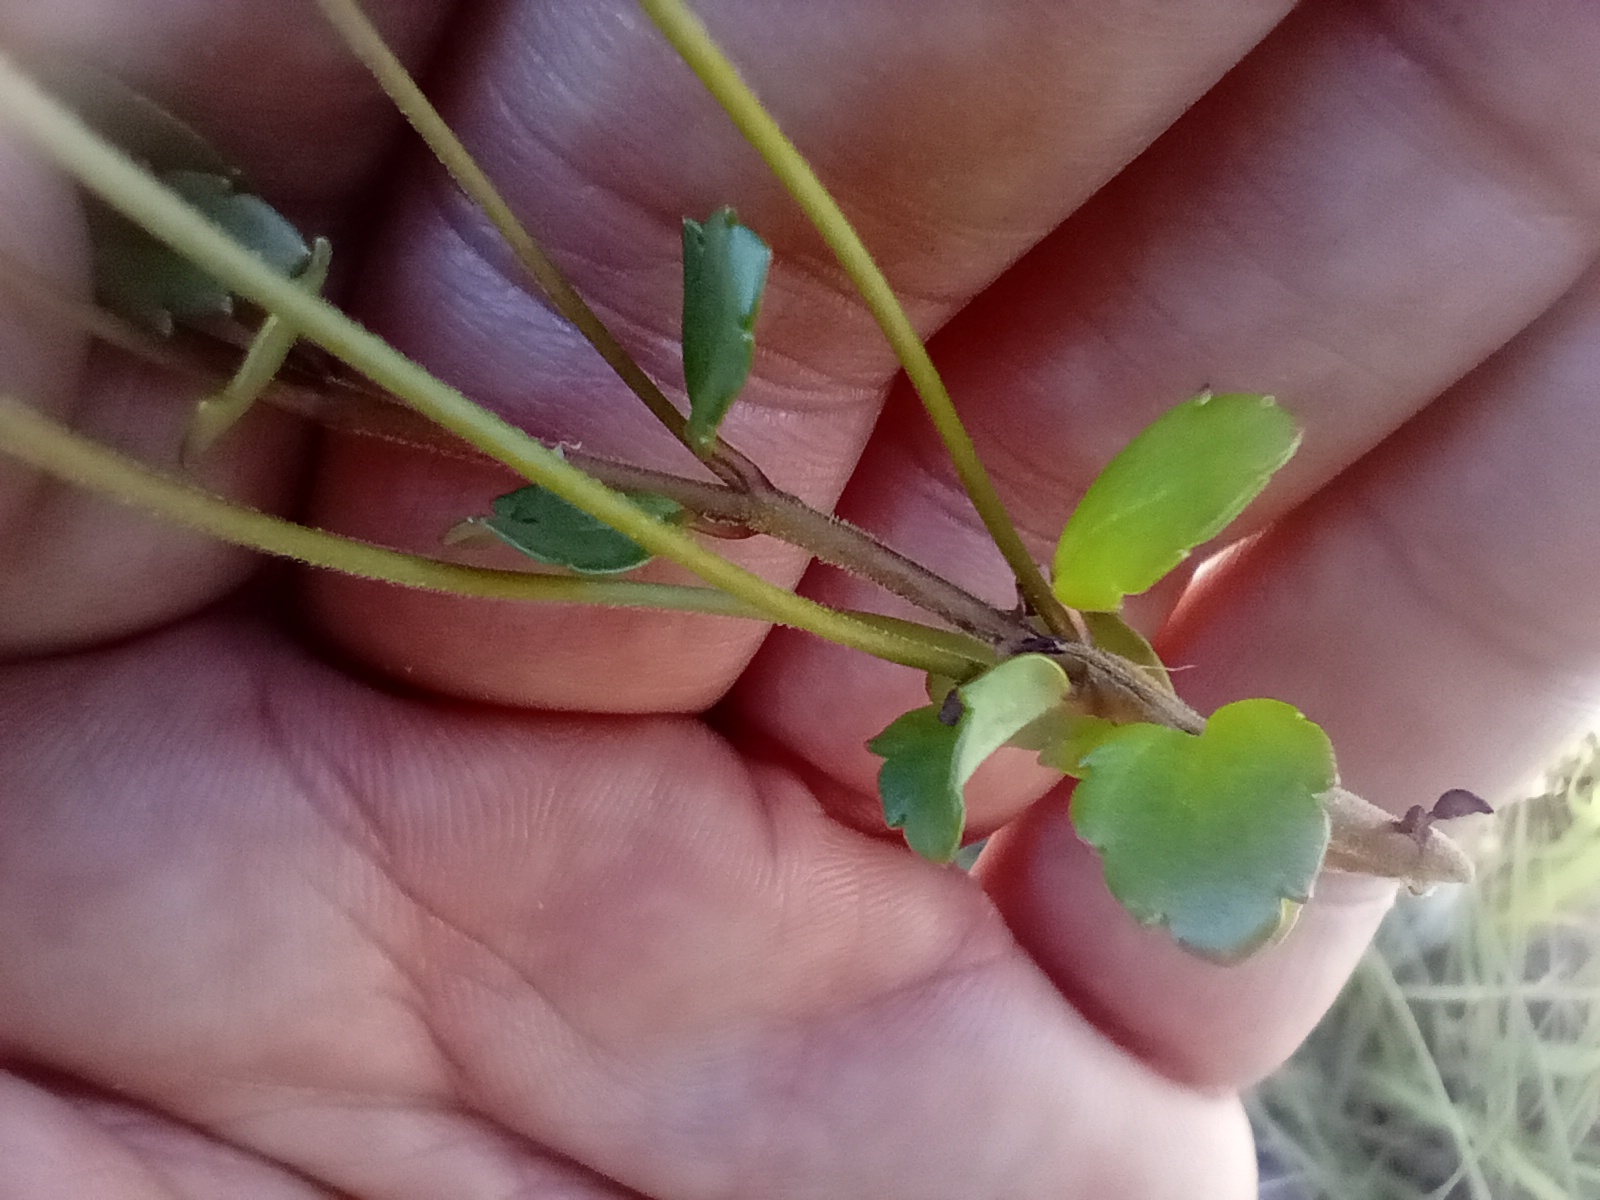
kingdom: Plantae
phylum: Tracheophyta
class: Magnoliopsida
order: Lamiales
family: Plantaginaceae
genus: Veronica
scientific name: Veronica lyallii
